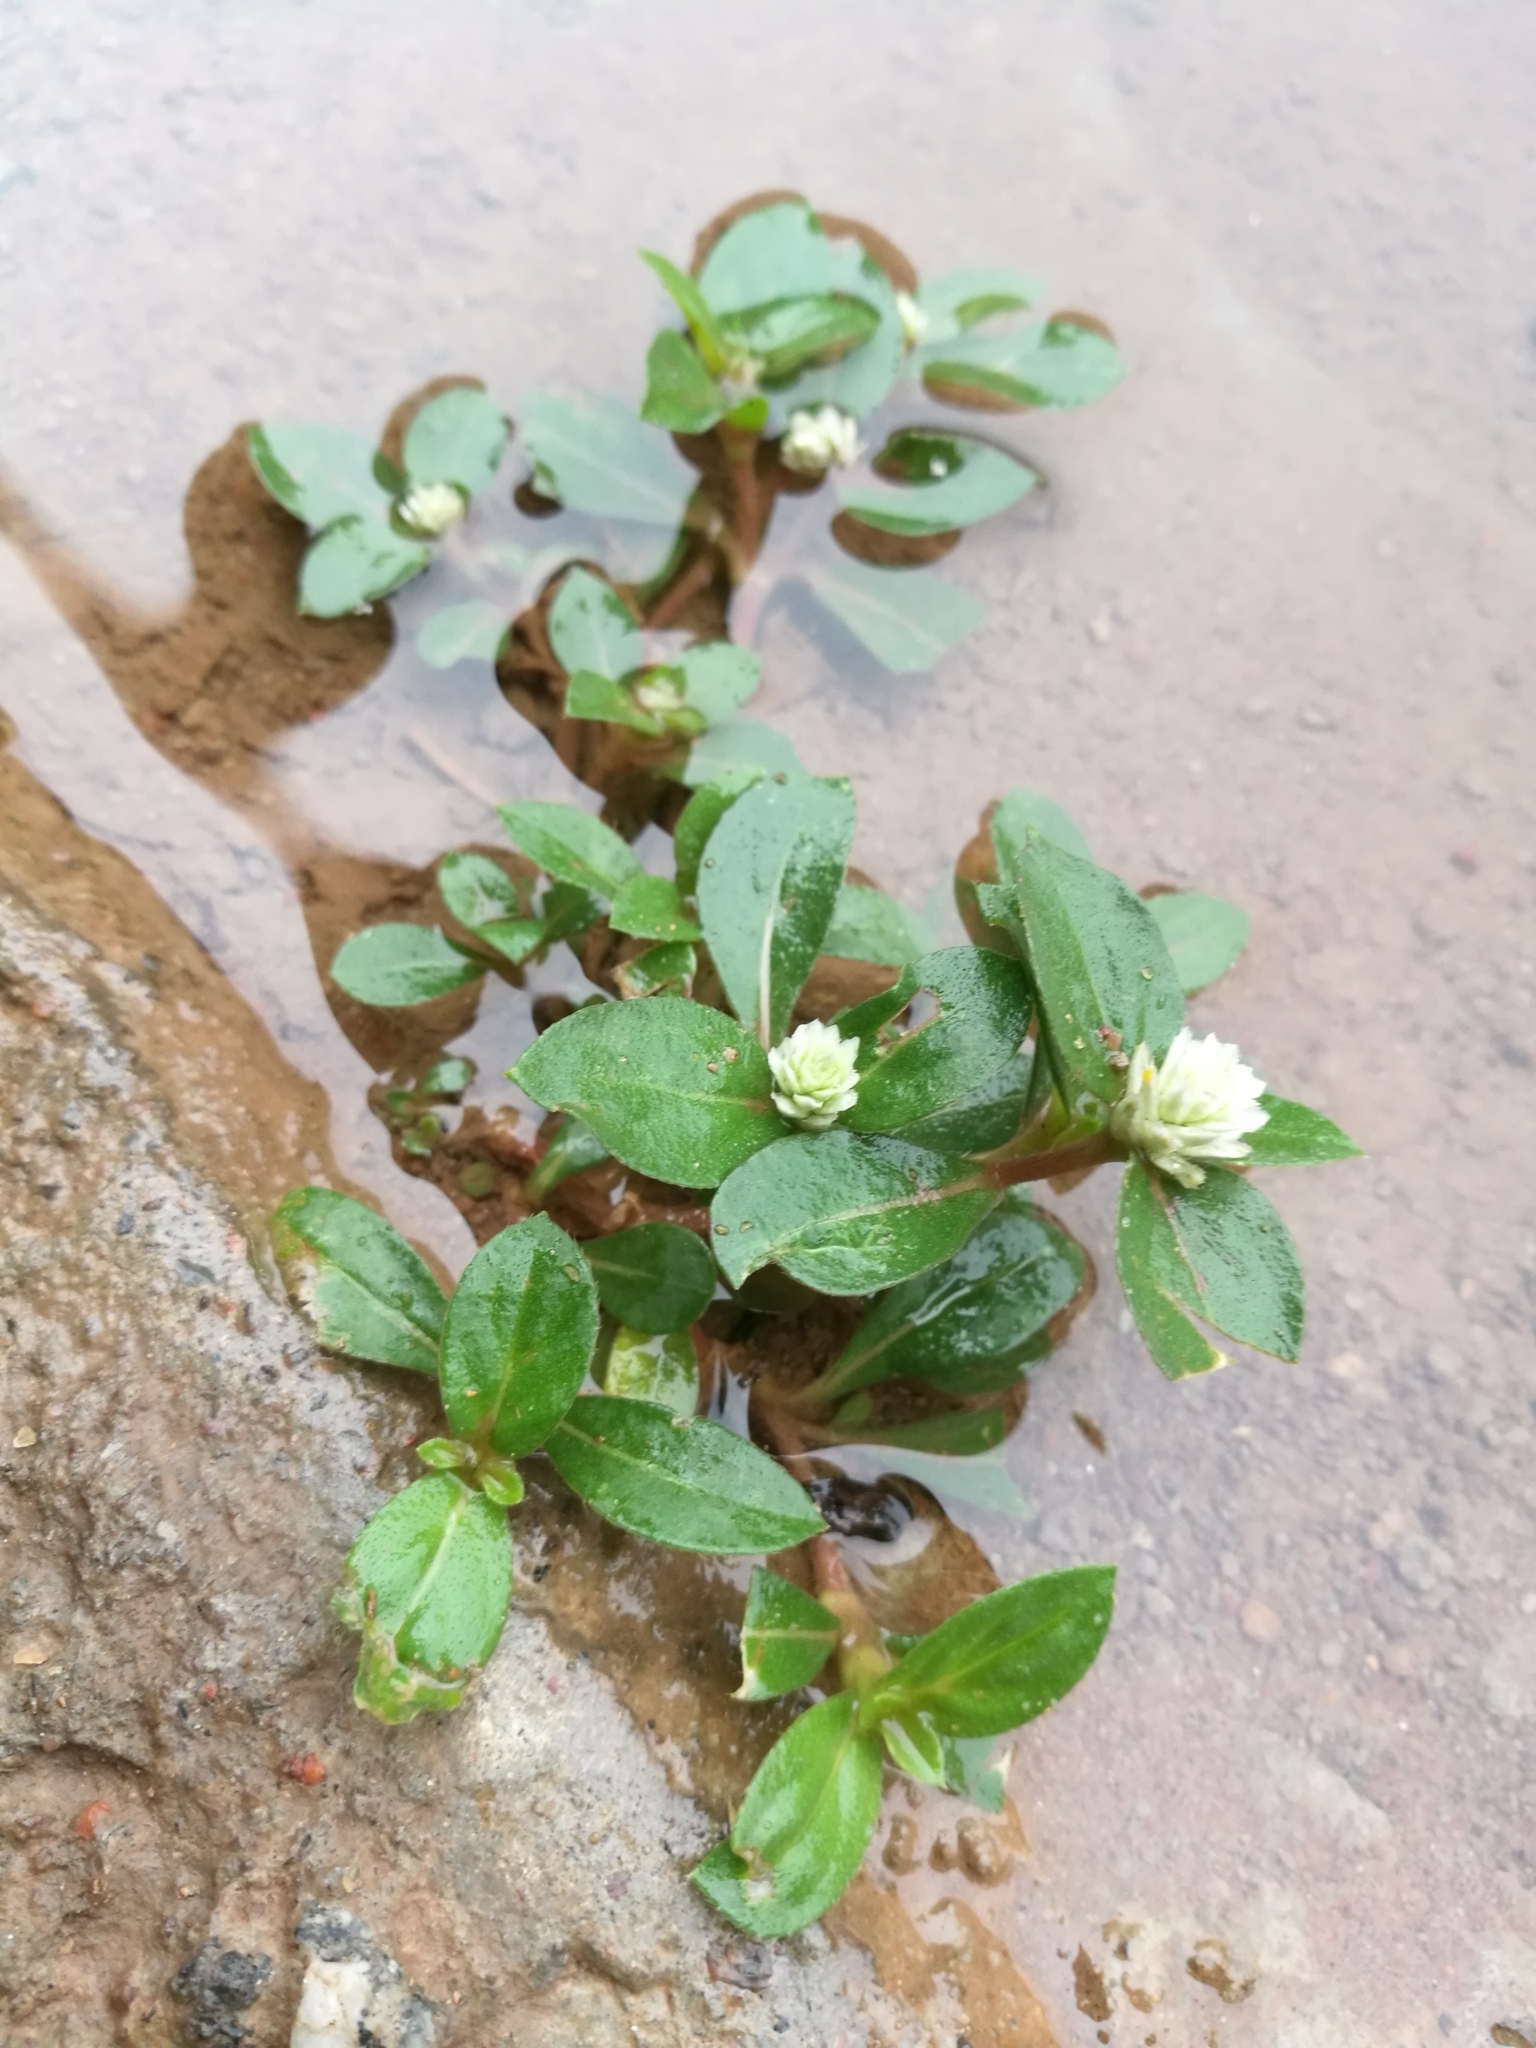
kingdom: Plantae
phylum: Tracheophyta
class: Magnoliopsida
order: Caryophyllales
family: Amaranthaceae
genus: Gomphrena
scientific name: Gomphrena celosioides
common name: Gomphrena-weed
